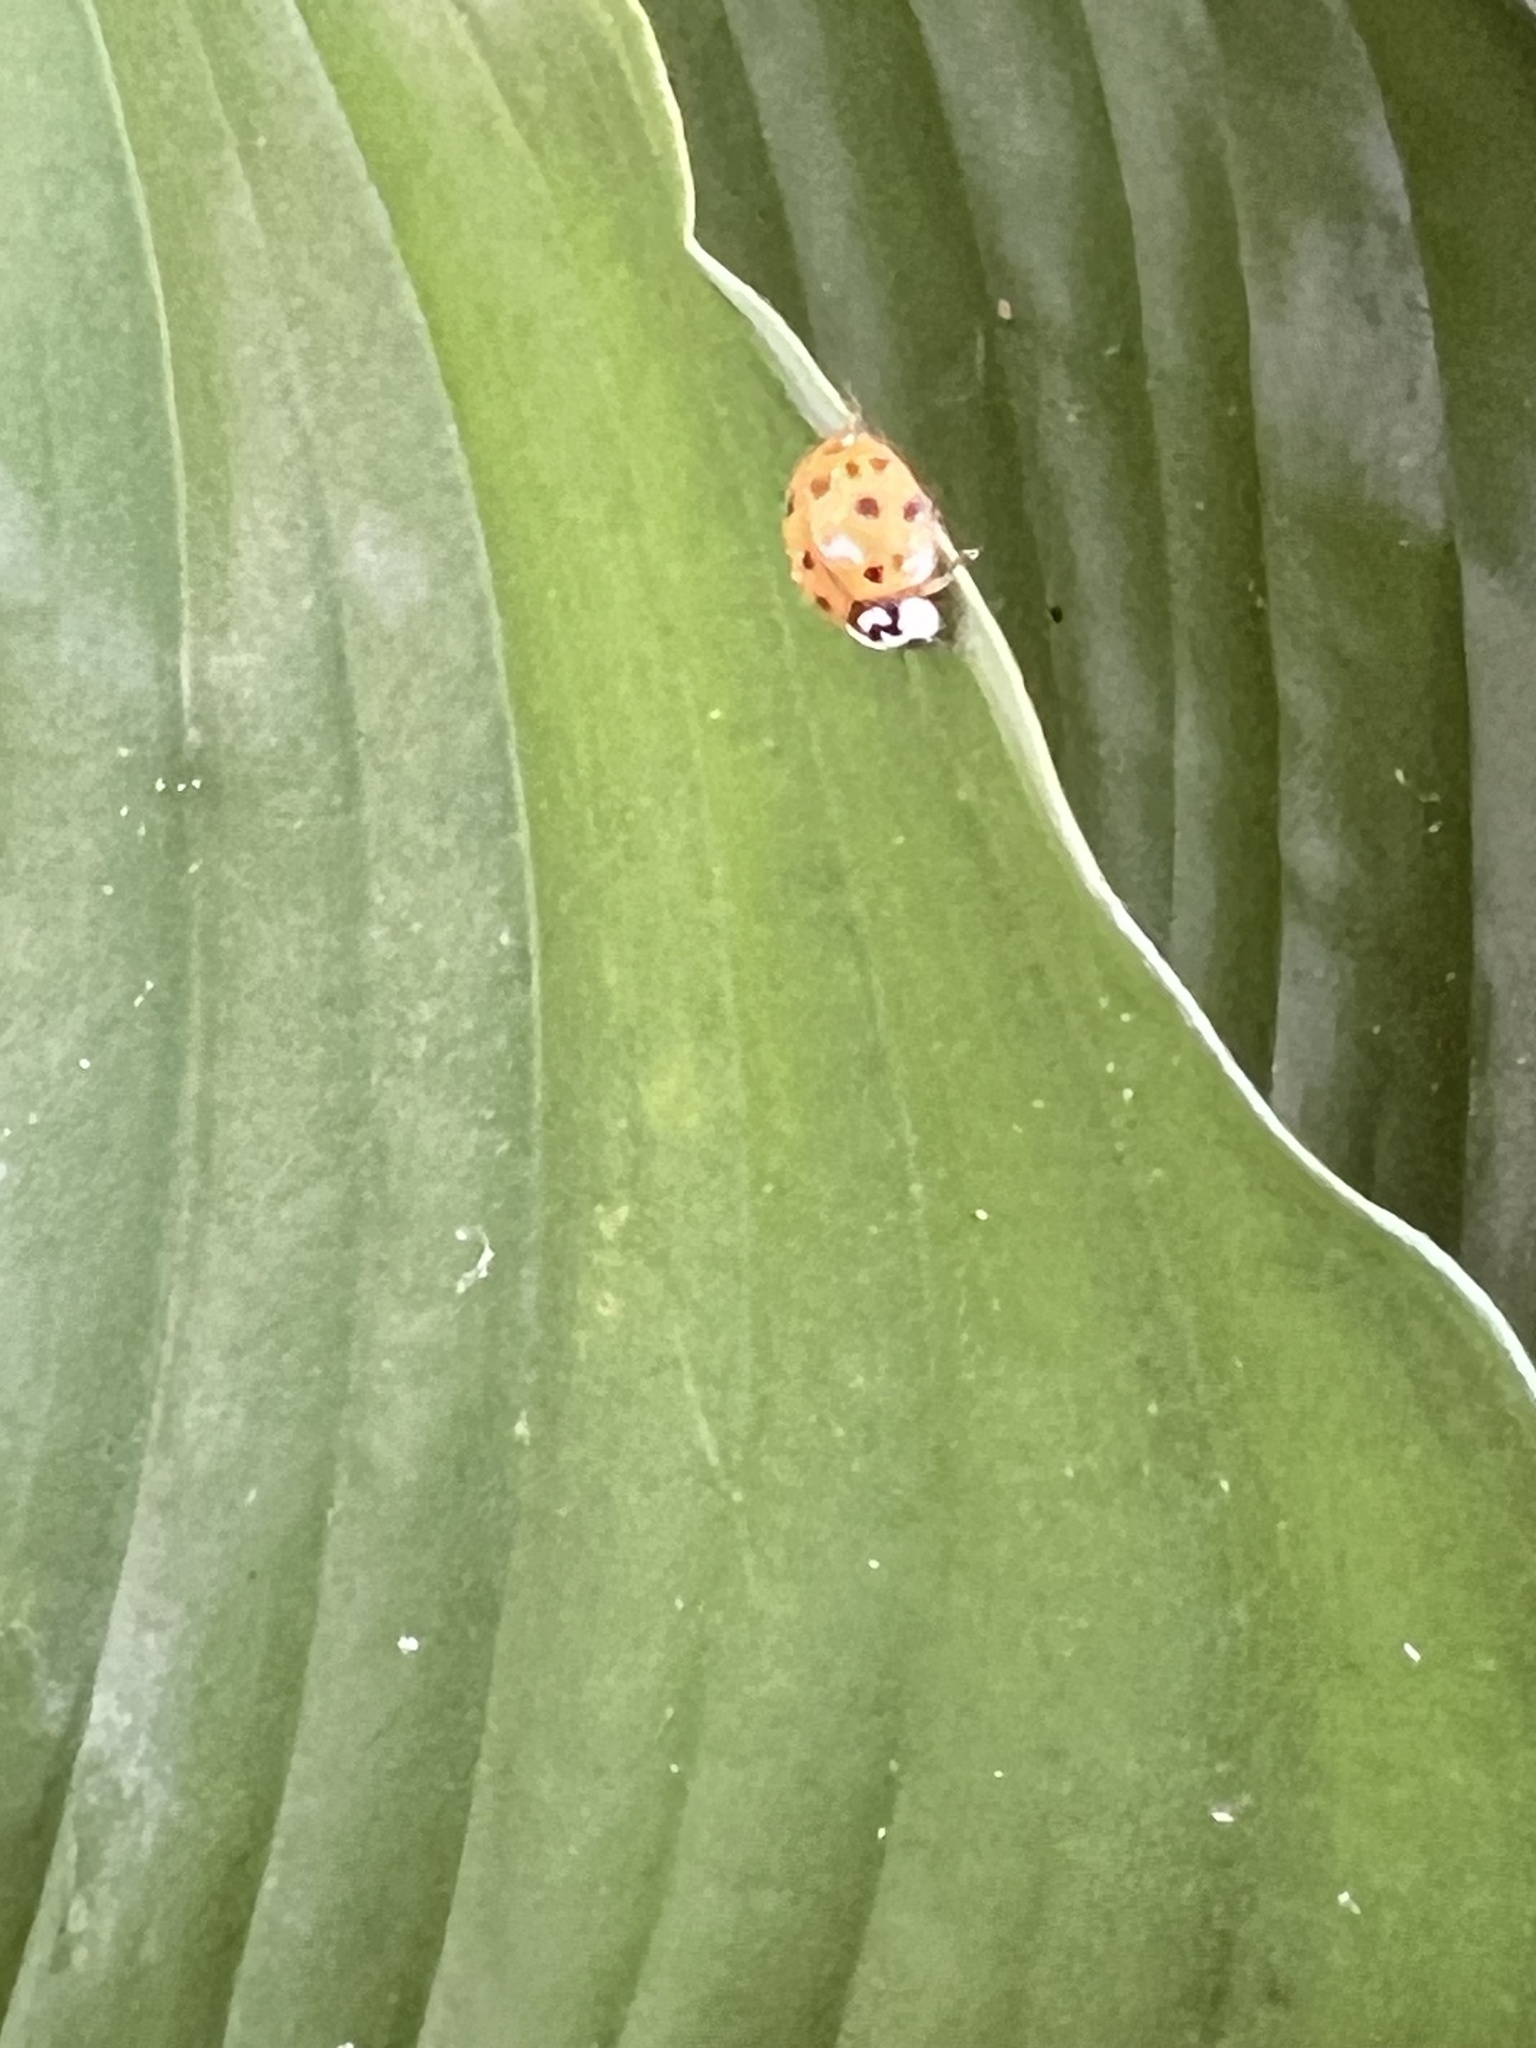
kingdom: Animalia
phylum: Arthropoda
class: Insecta
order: Coleoptera
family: Coccinellidae
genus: Harmonia
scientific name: Harmonia axyridis
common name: Harlequin ladybird
